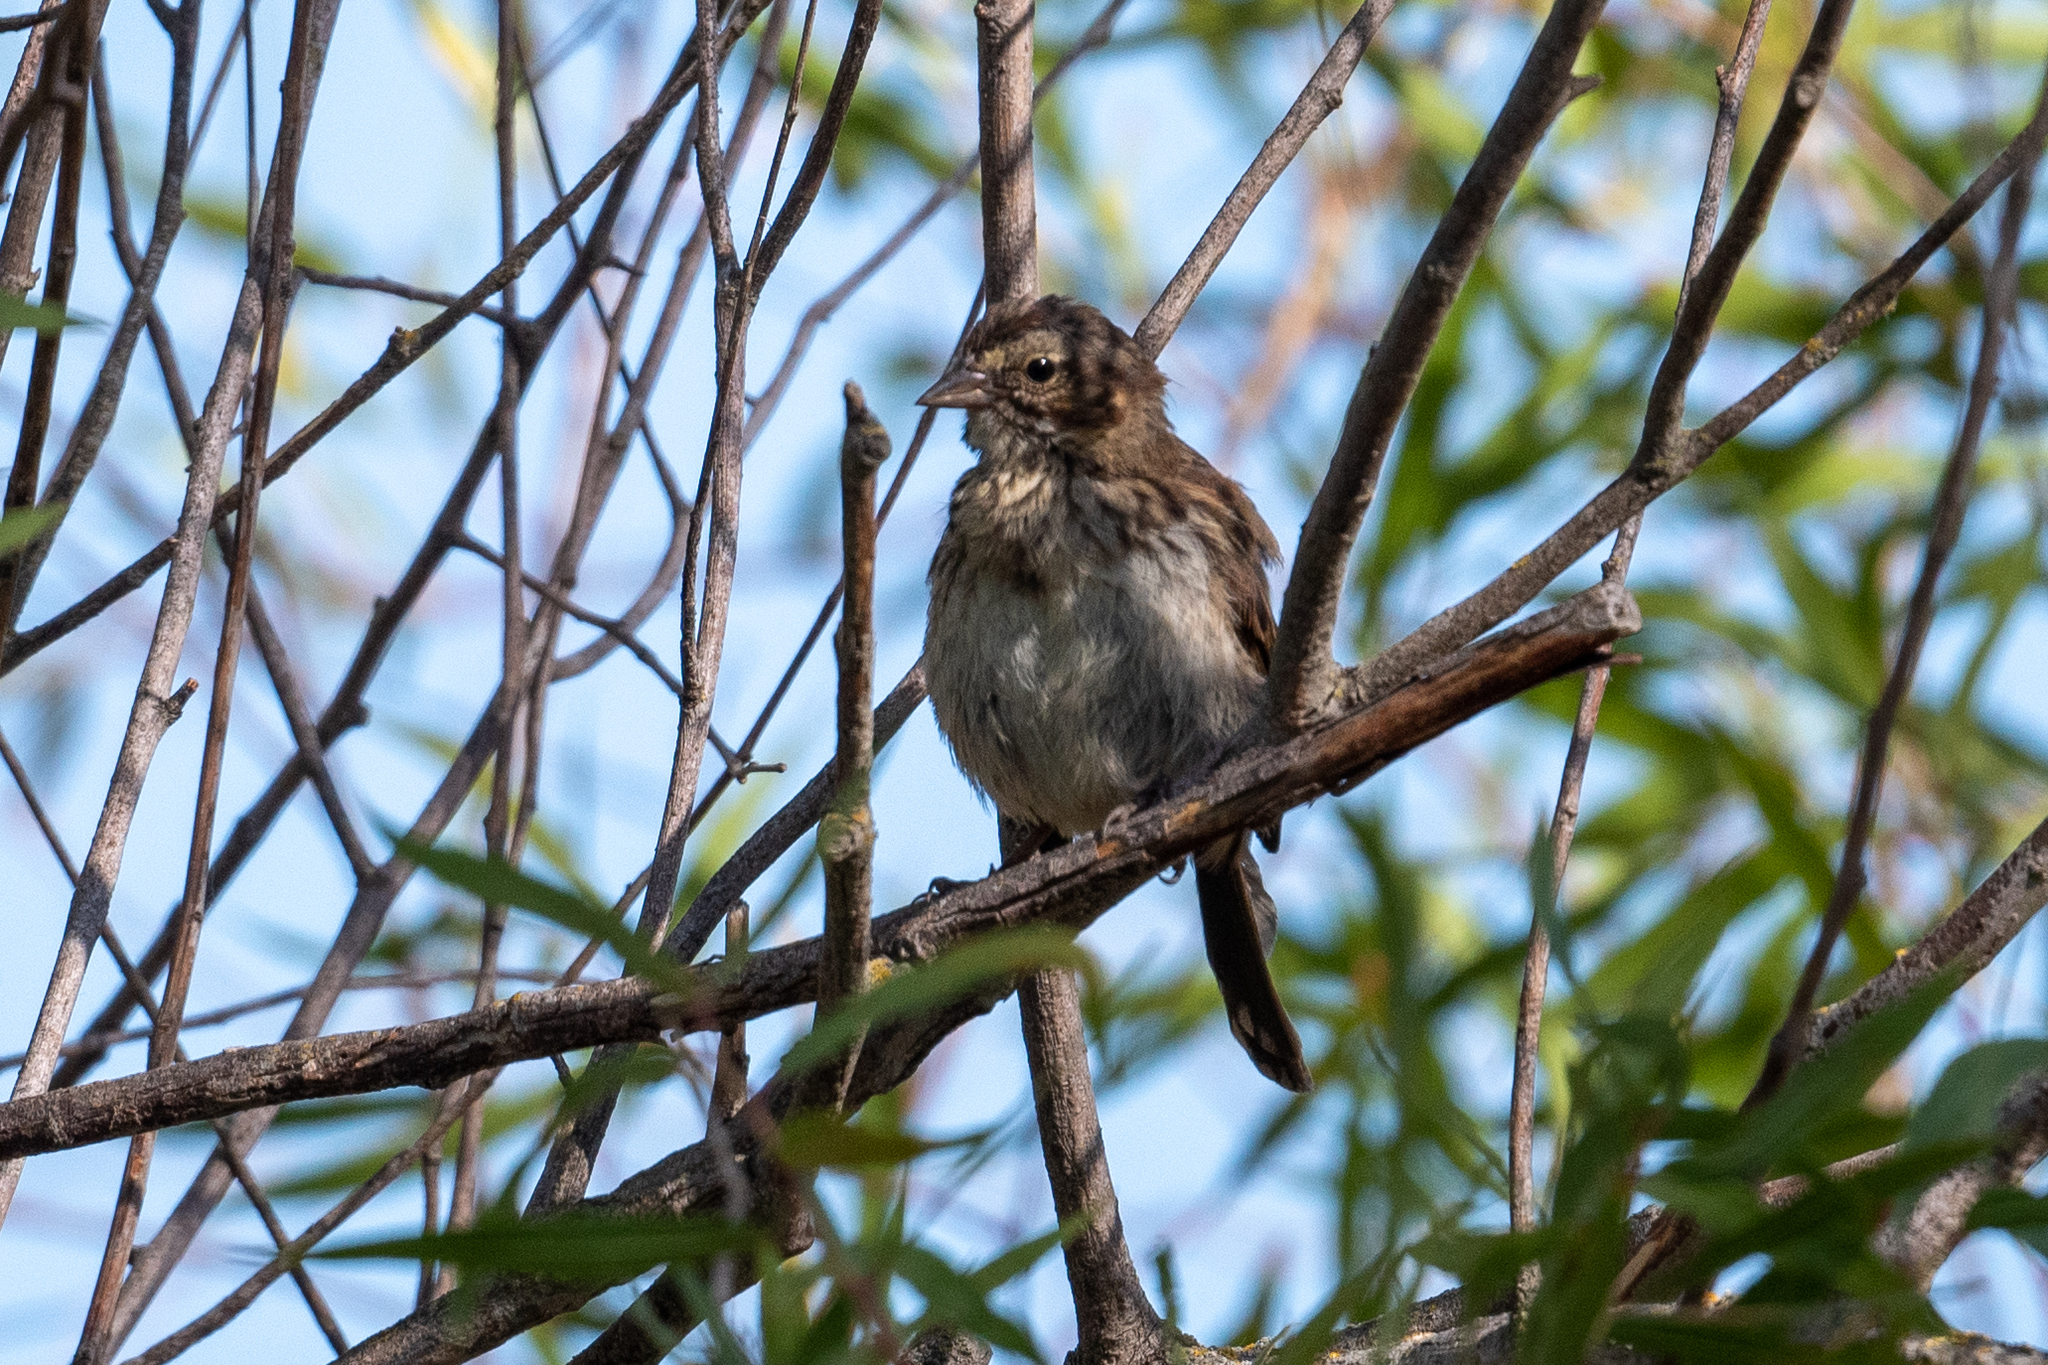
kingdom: Animalia
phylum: Chordata
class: Aves
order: Passeriformes
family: Passerellidae
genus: Melospiza
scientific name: Melospiza melodia
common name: Song sparrow
